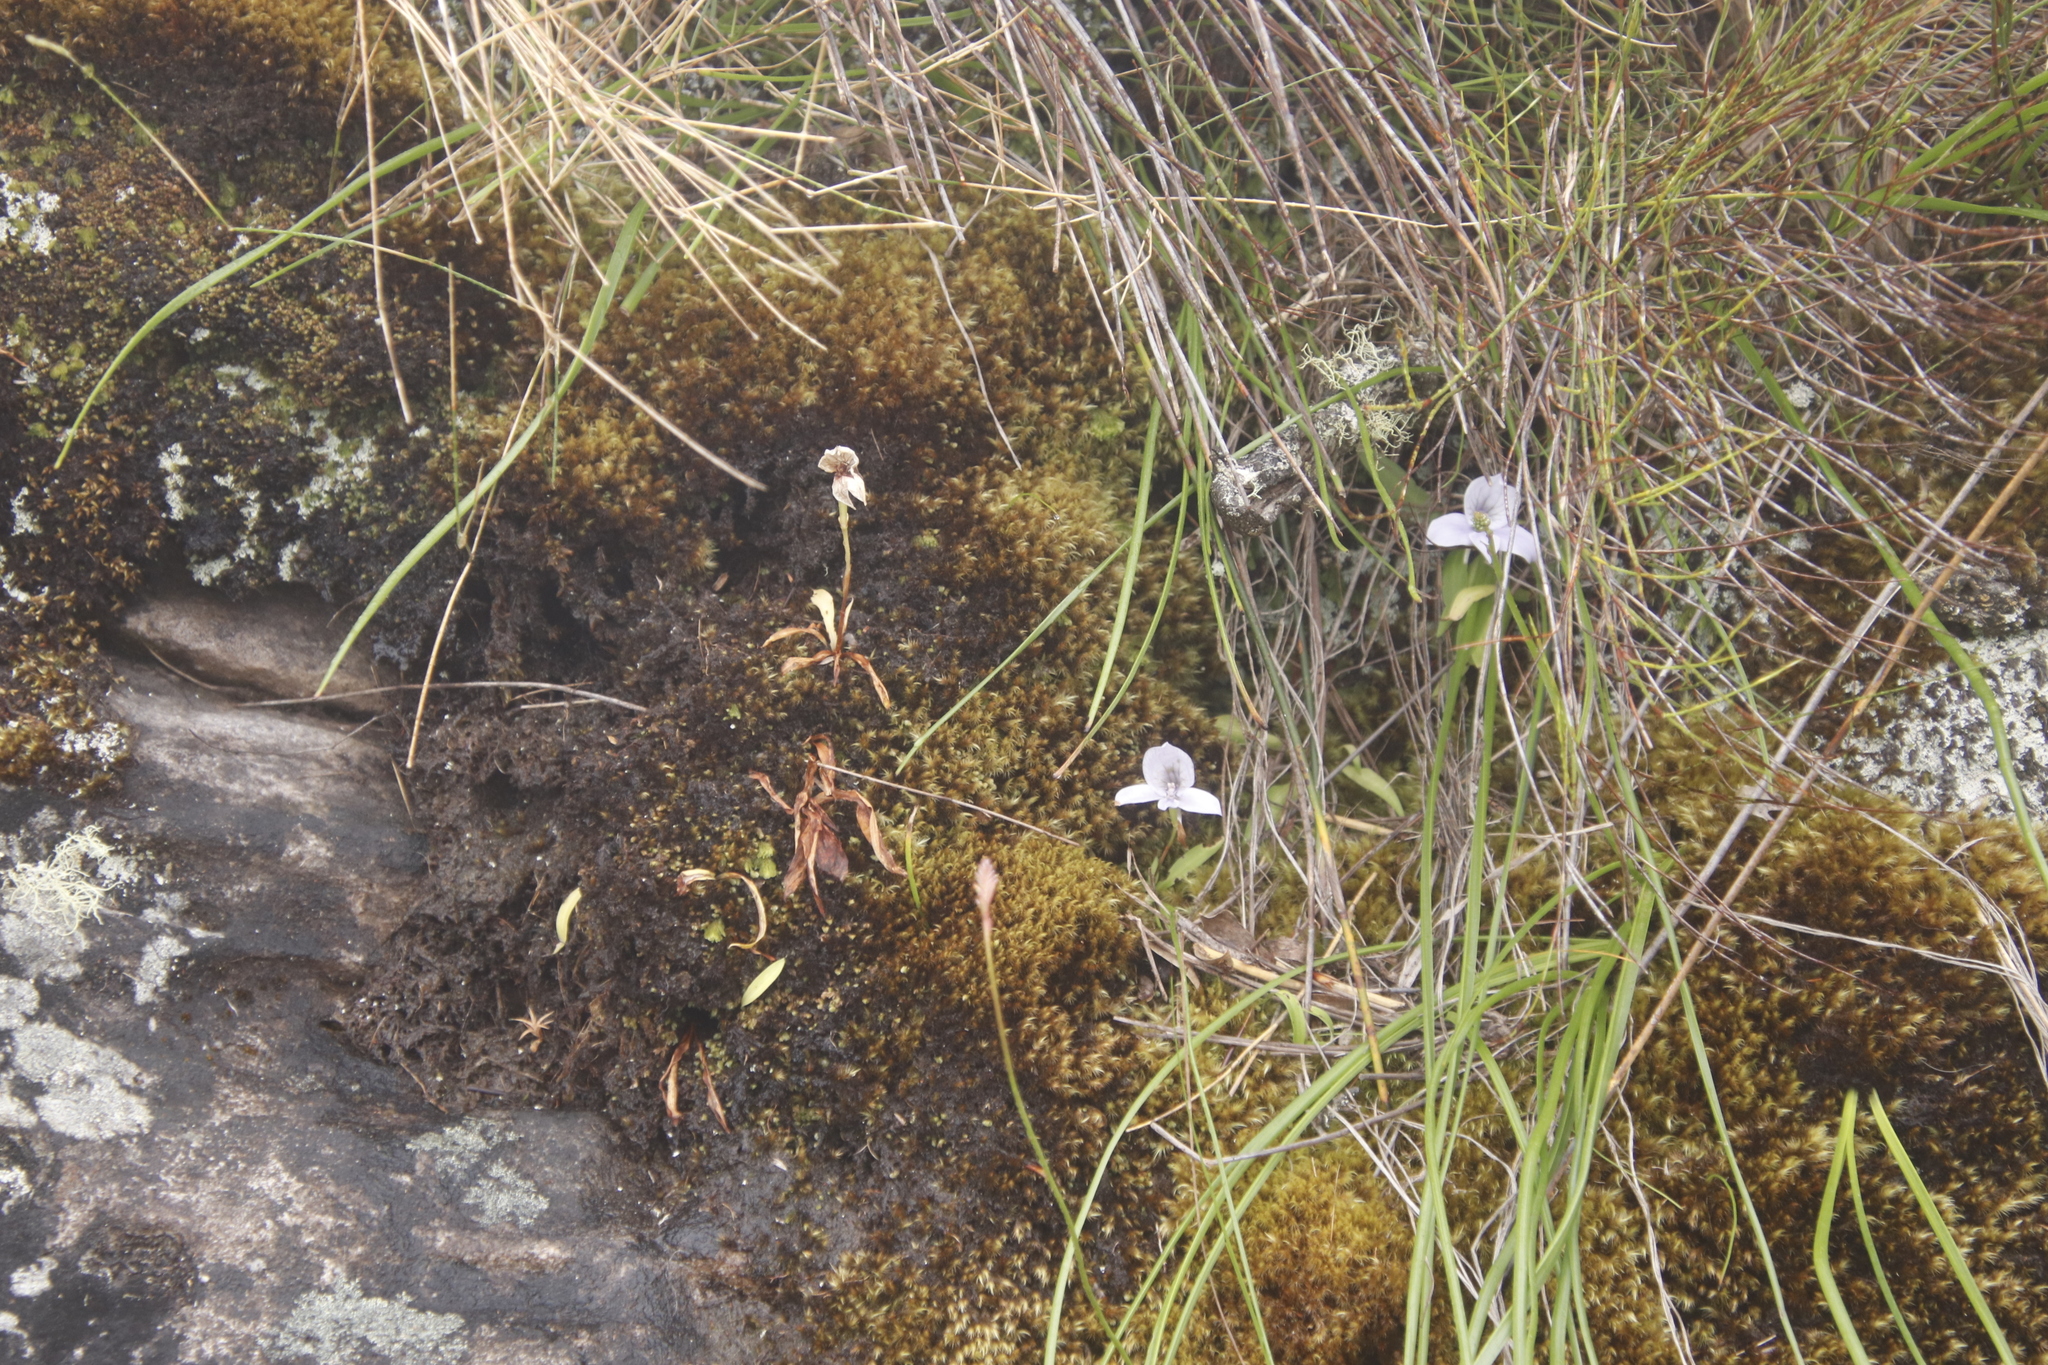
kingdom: Plantae
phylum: Tracheophyta
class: Liliopsida
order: Asparagales
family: Orchidaceae
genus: Disa
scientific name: Disa longicornu
